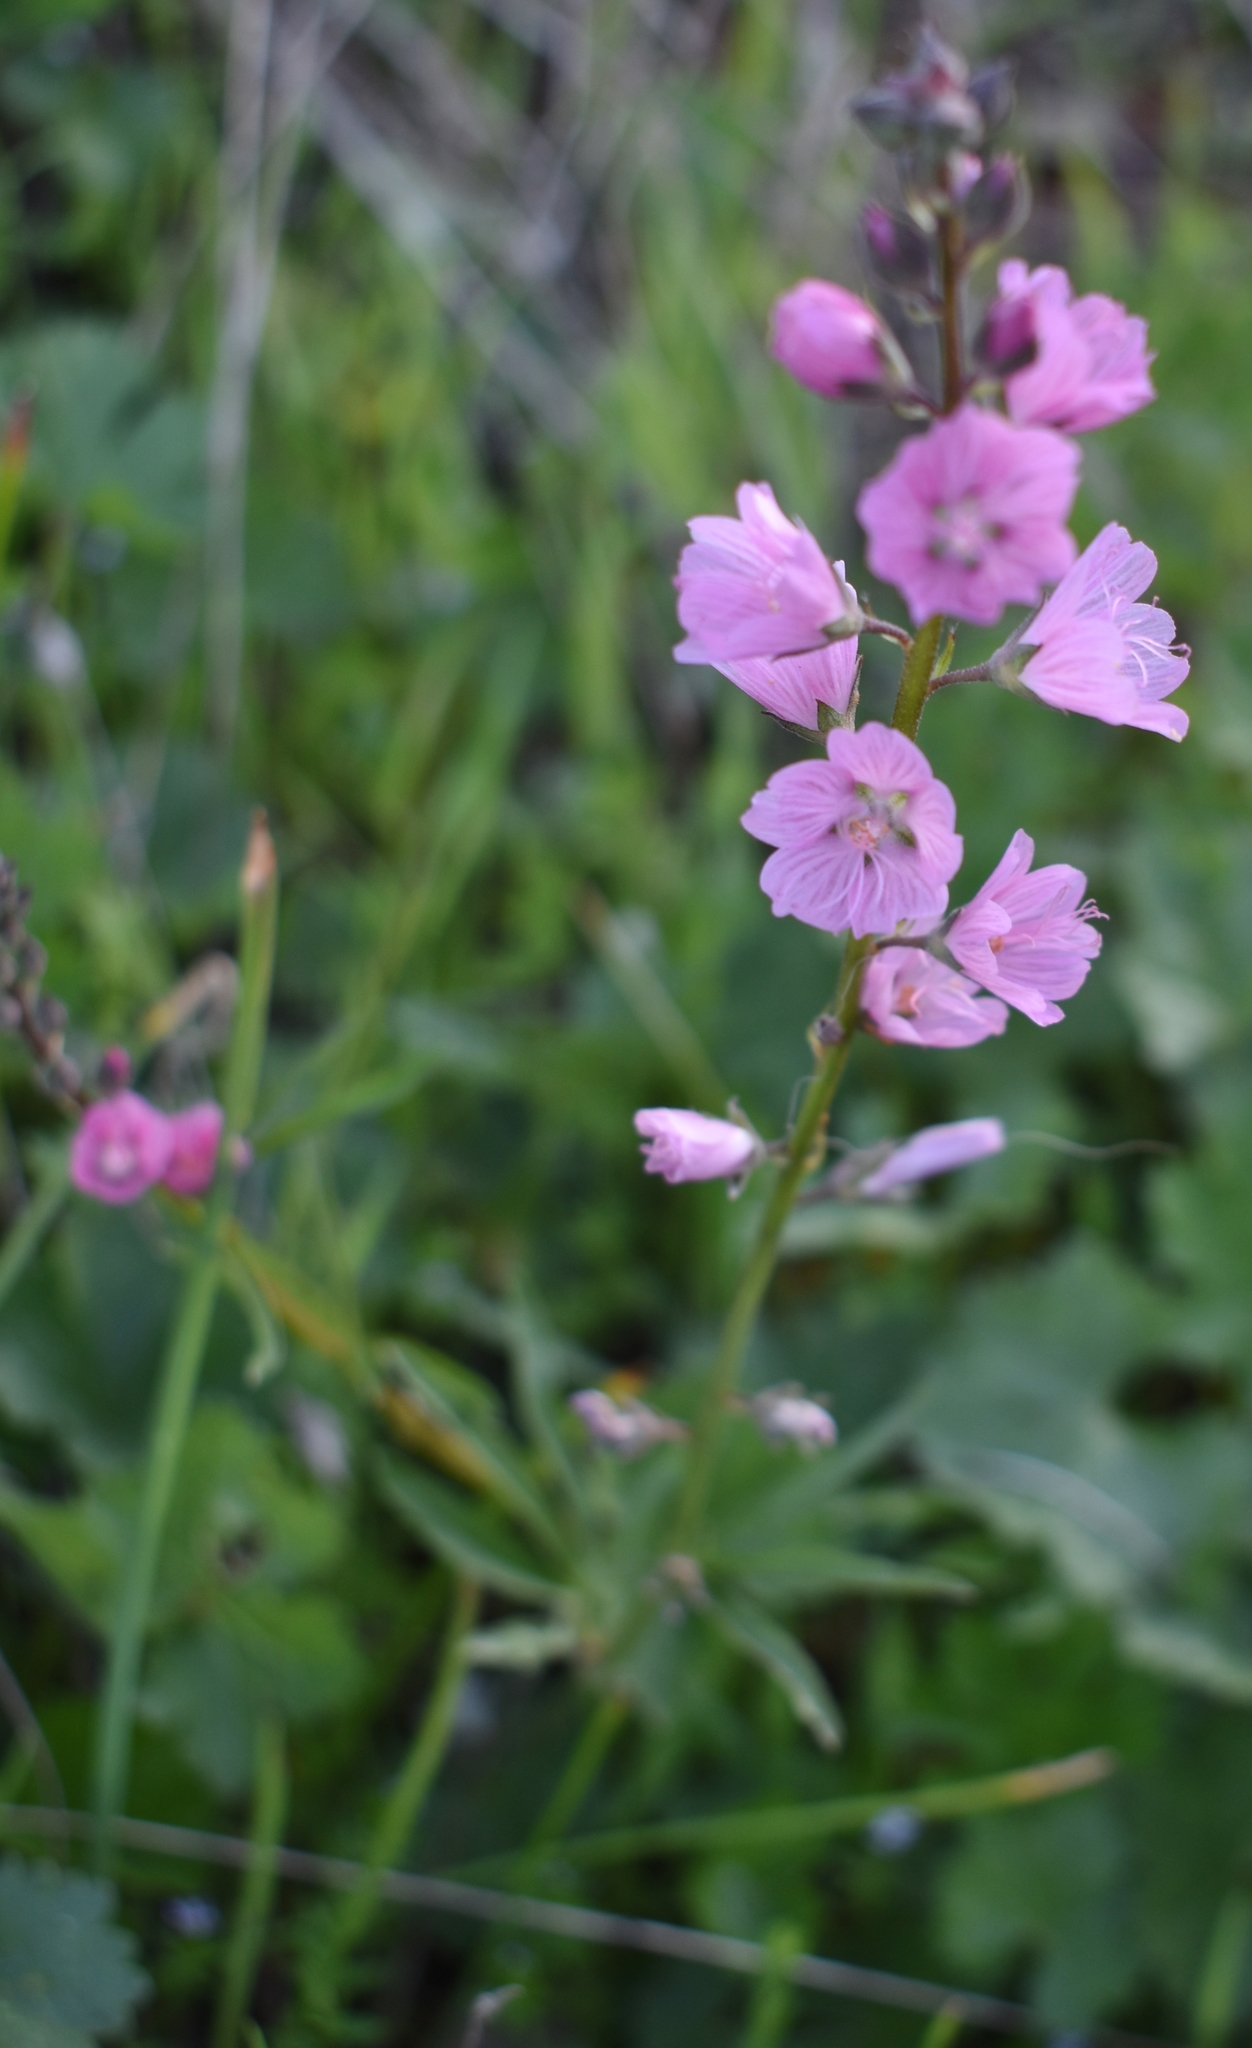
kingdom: Plantae
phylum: Tracheophyta
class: Magnoliopsida
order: Malvales
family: Malvaceae
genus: Sidalcea
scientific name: Sidalcea asprella
